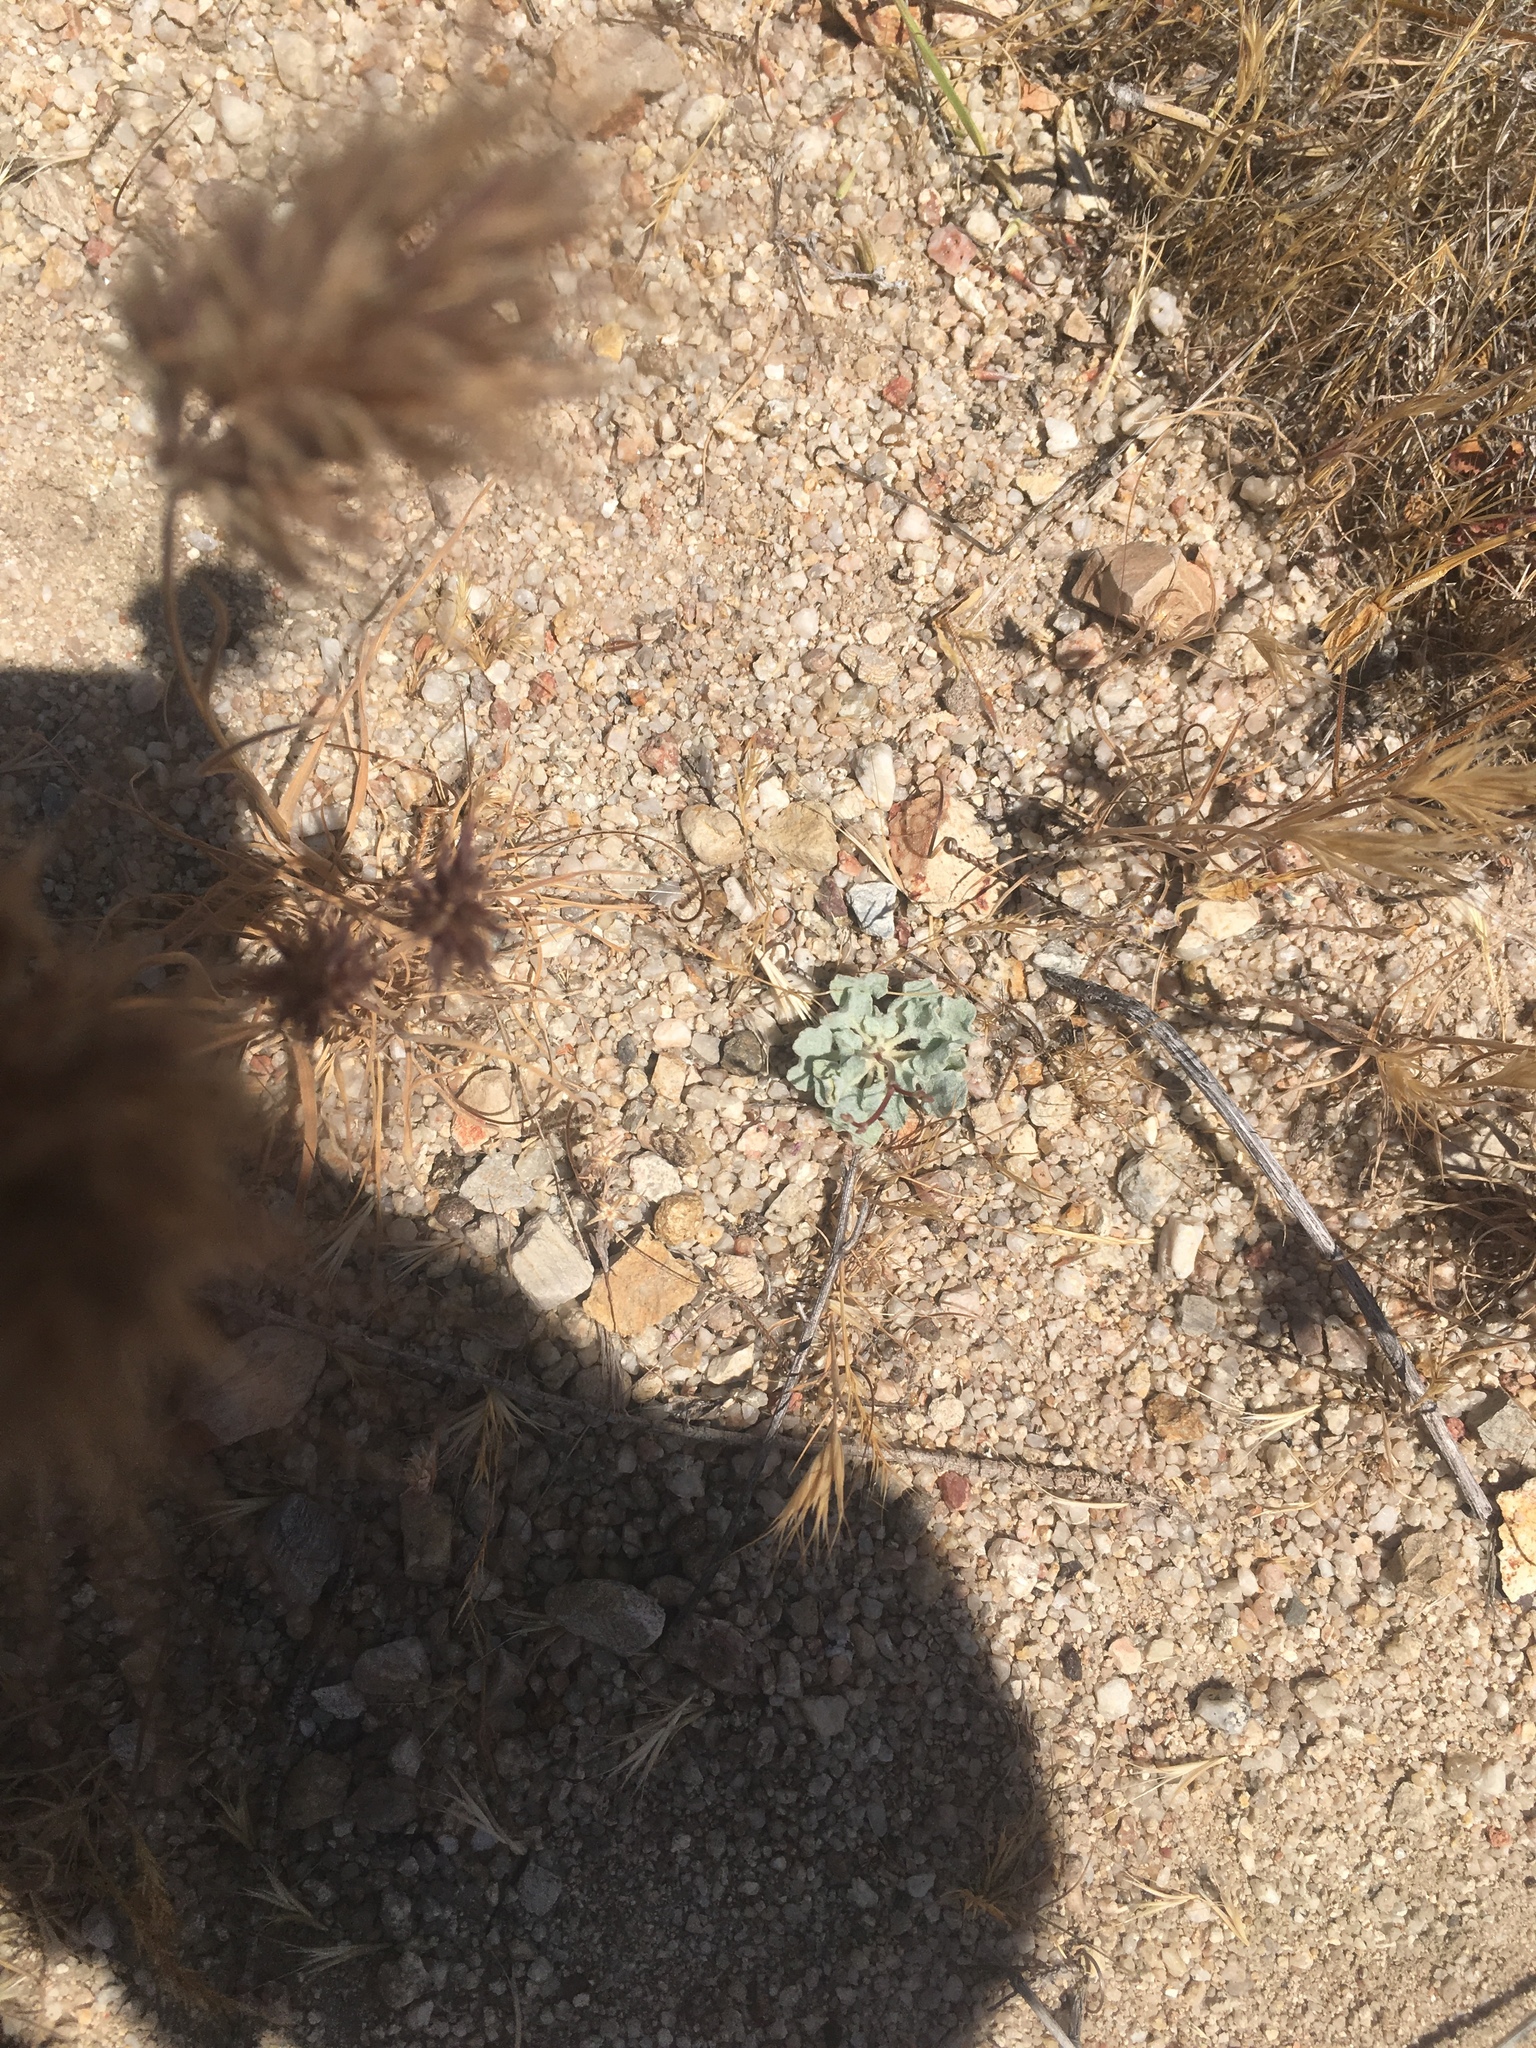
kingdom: Plantae
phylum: Tracheophyta
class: Magnoliopsida
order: Caryophyllales
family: Polygonaceae
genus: Eriogonum
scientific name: Eriogonum elegans
